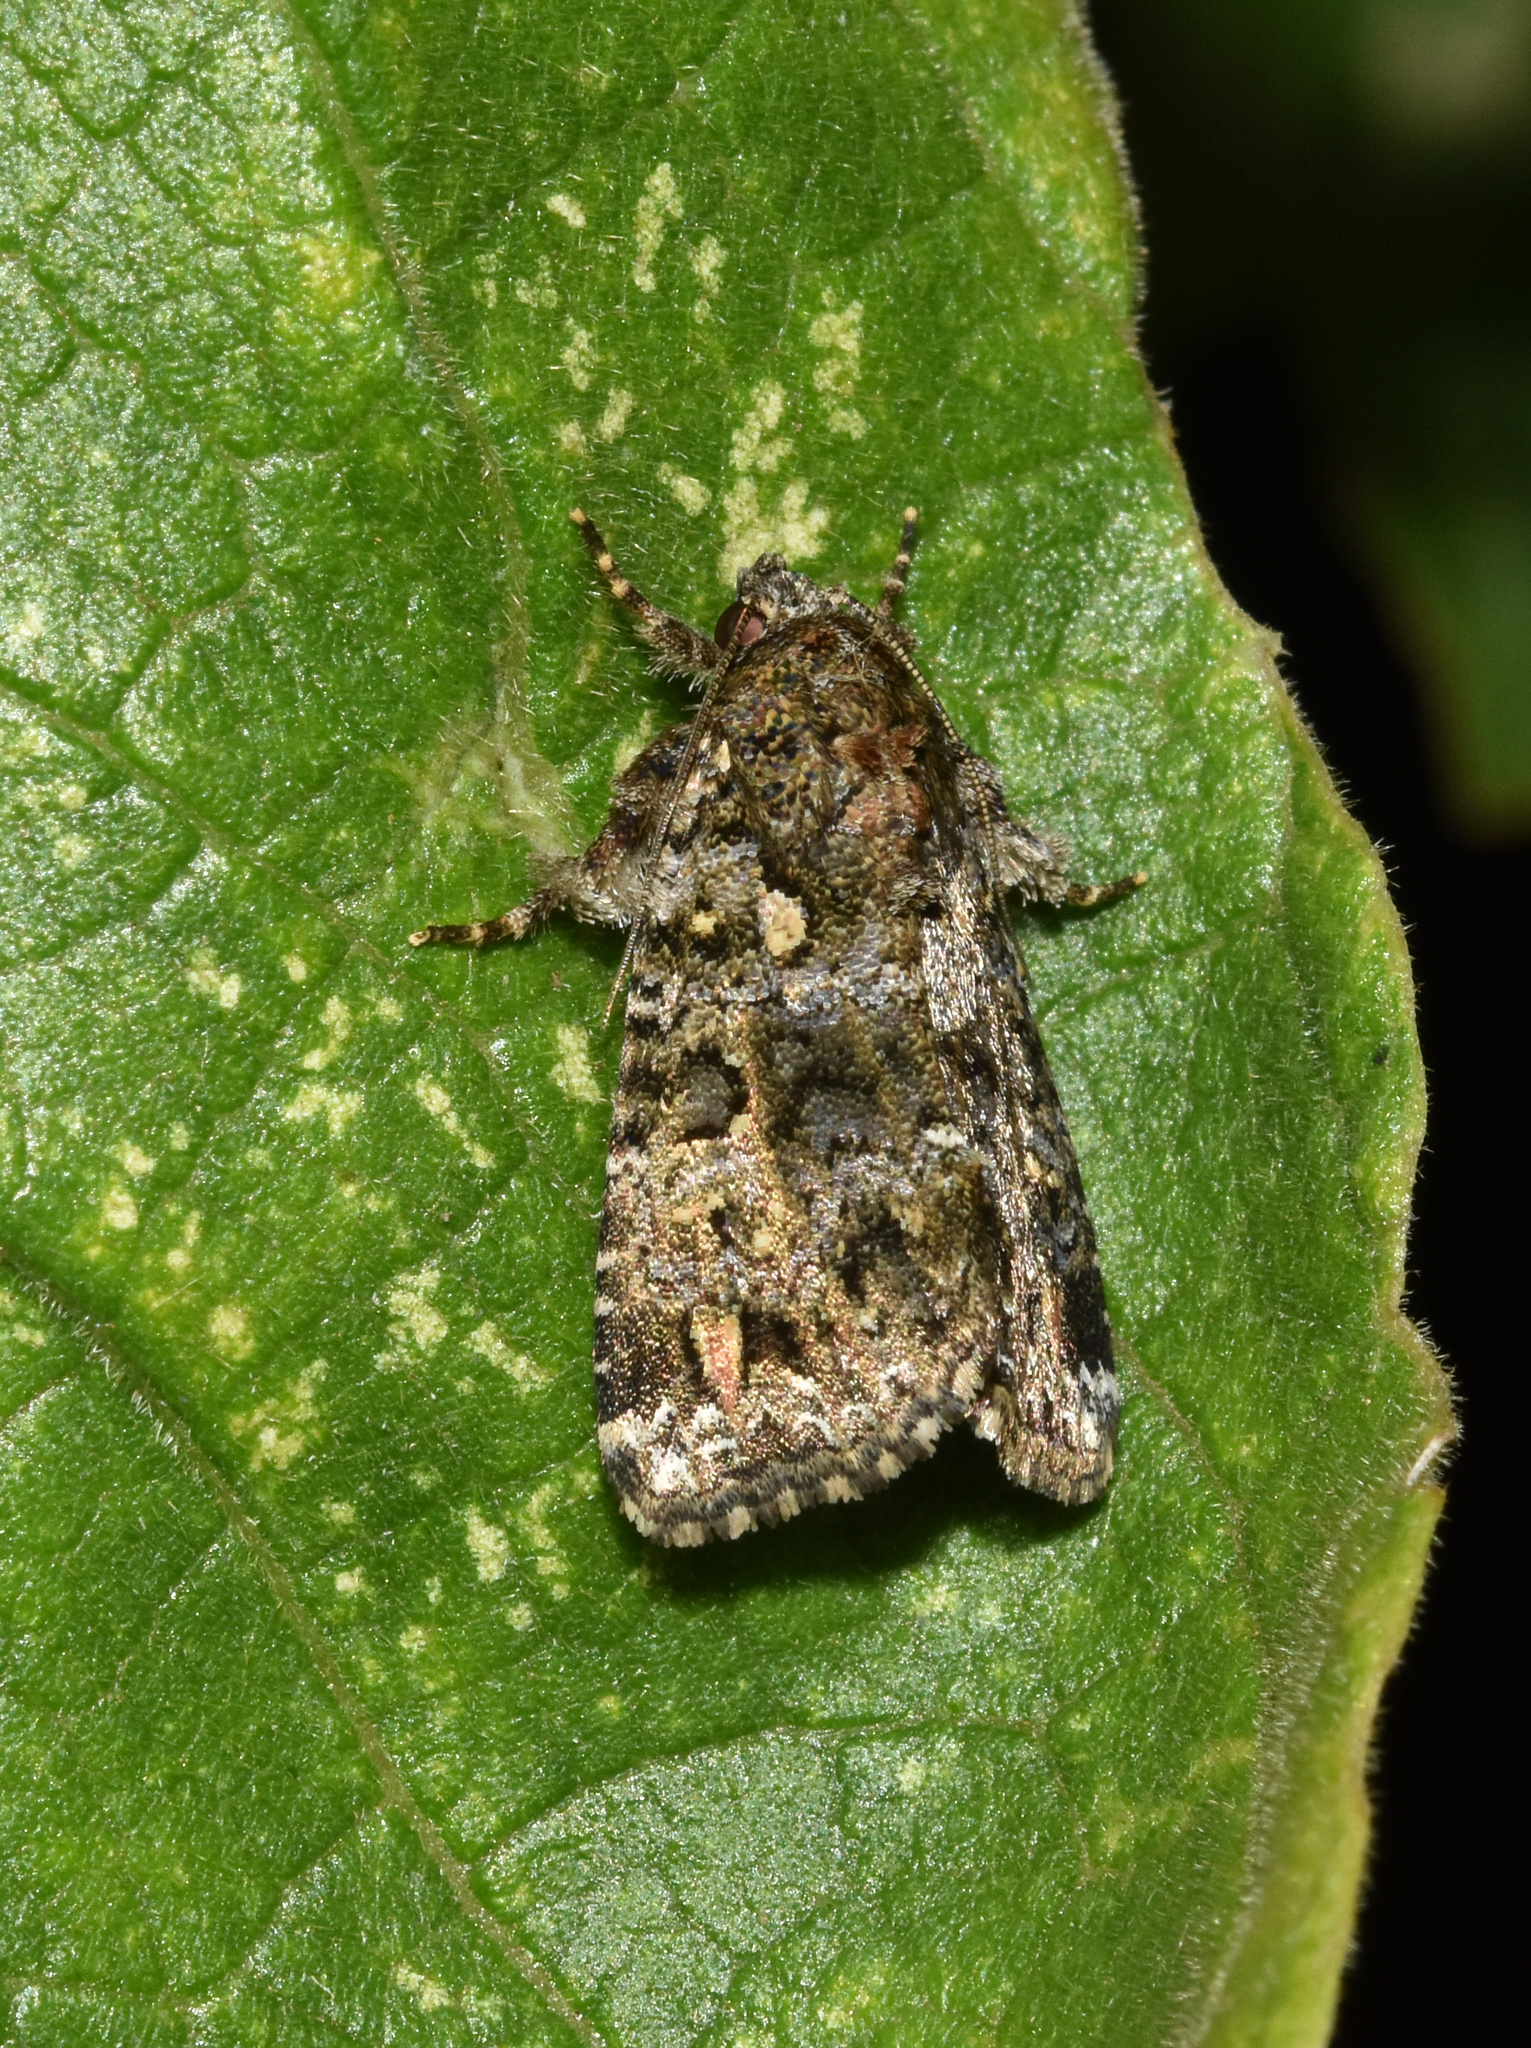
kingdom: Animalia
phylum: Arthropoda
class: Insecta
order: Lepidoptera
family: Noctuidae
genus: Callopistria
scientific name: Callopistria latreillei
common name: Latreille's latin
